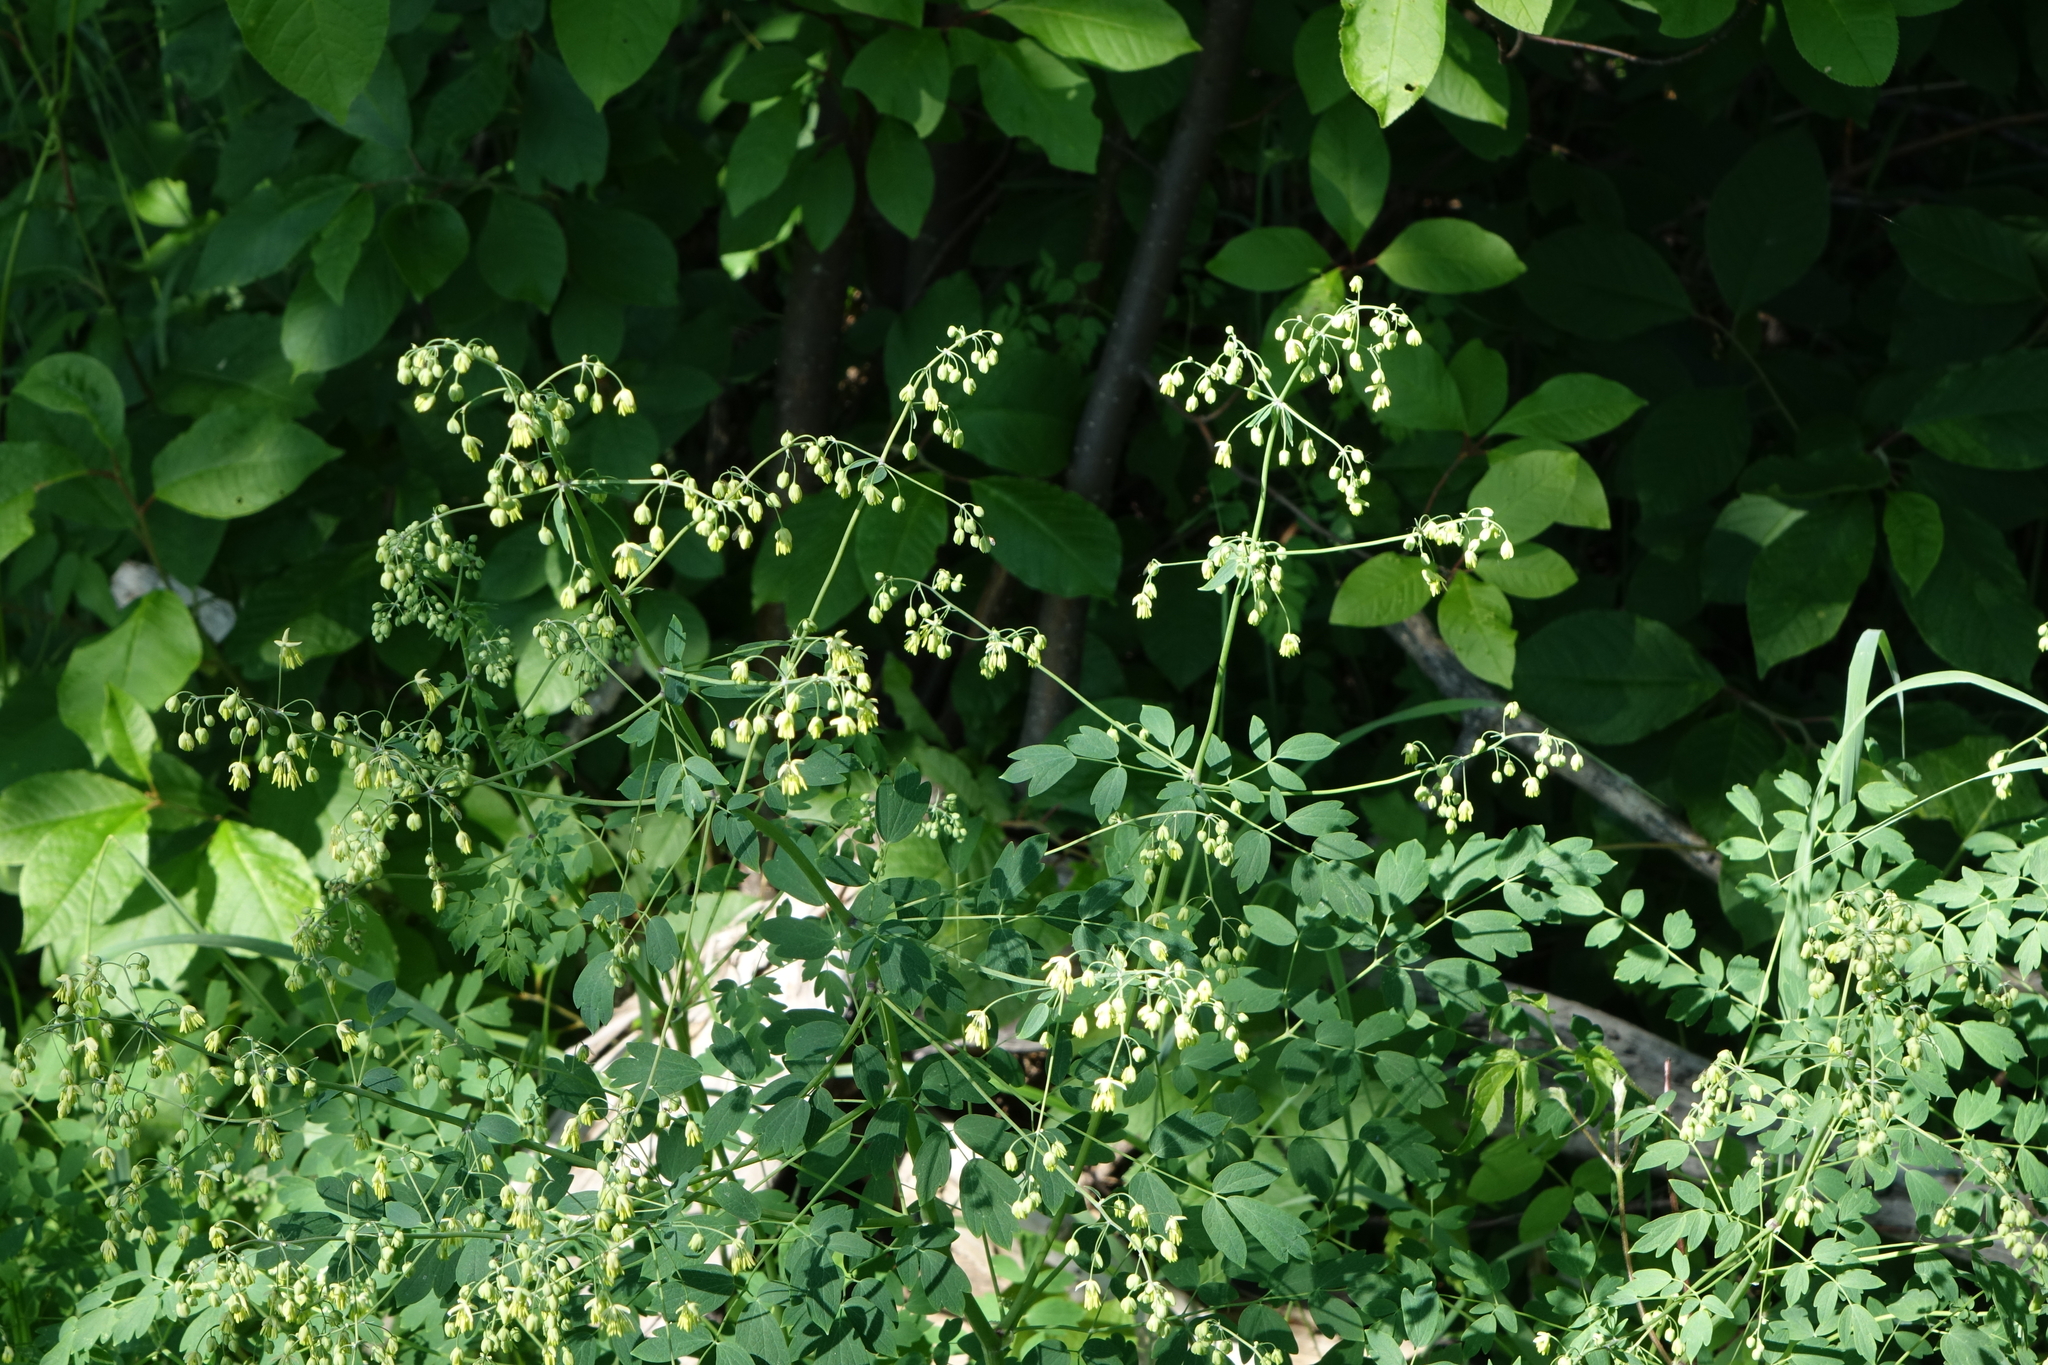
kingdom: Plantae
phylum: Tracheophyta
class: Magnoliopsida
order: Ranunculales
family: Ranunculaceae
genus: Thalictrum
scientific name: Thalictrum minus
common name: Lesser meadow-rue
